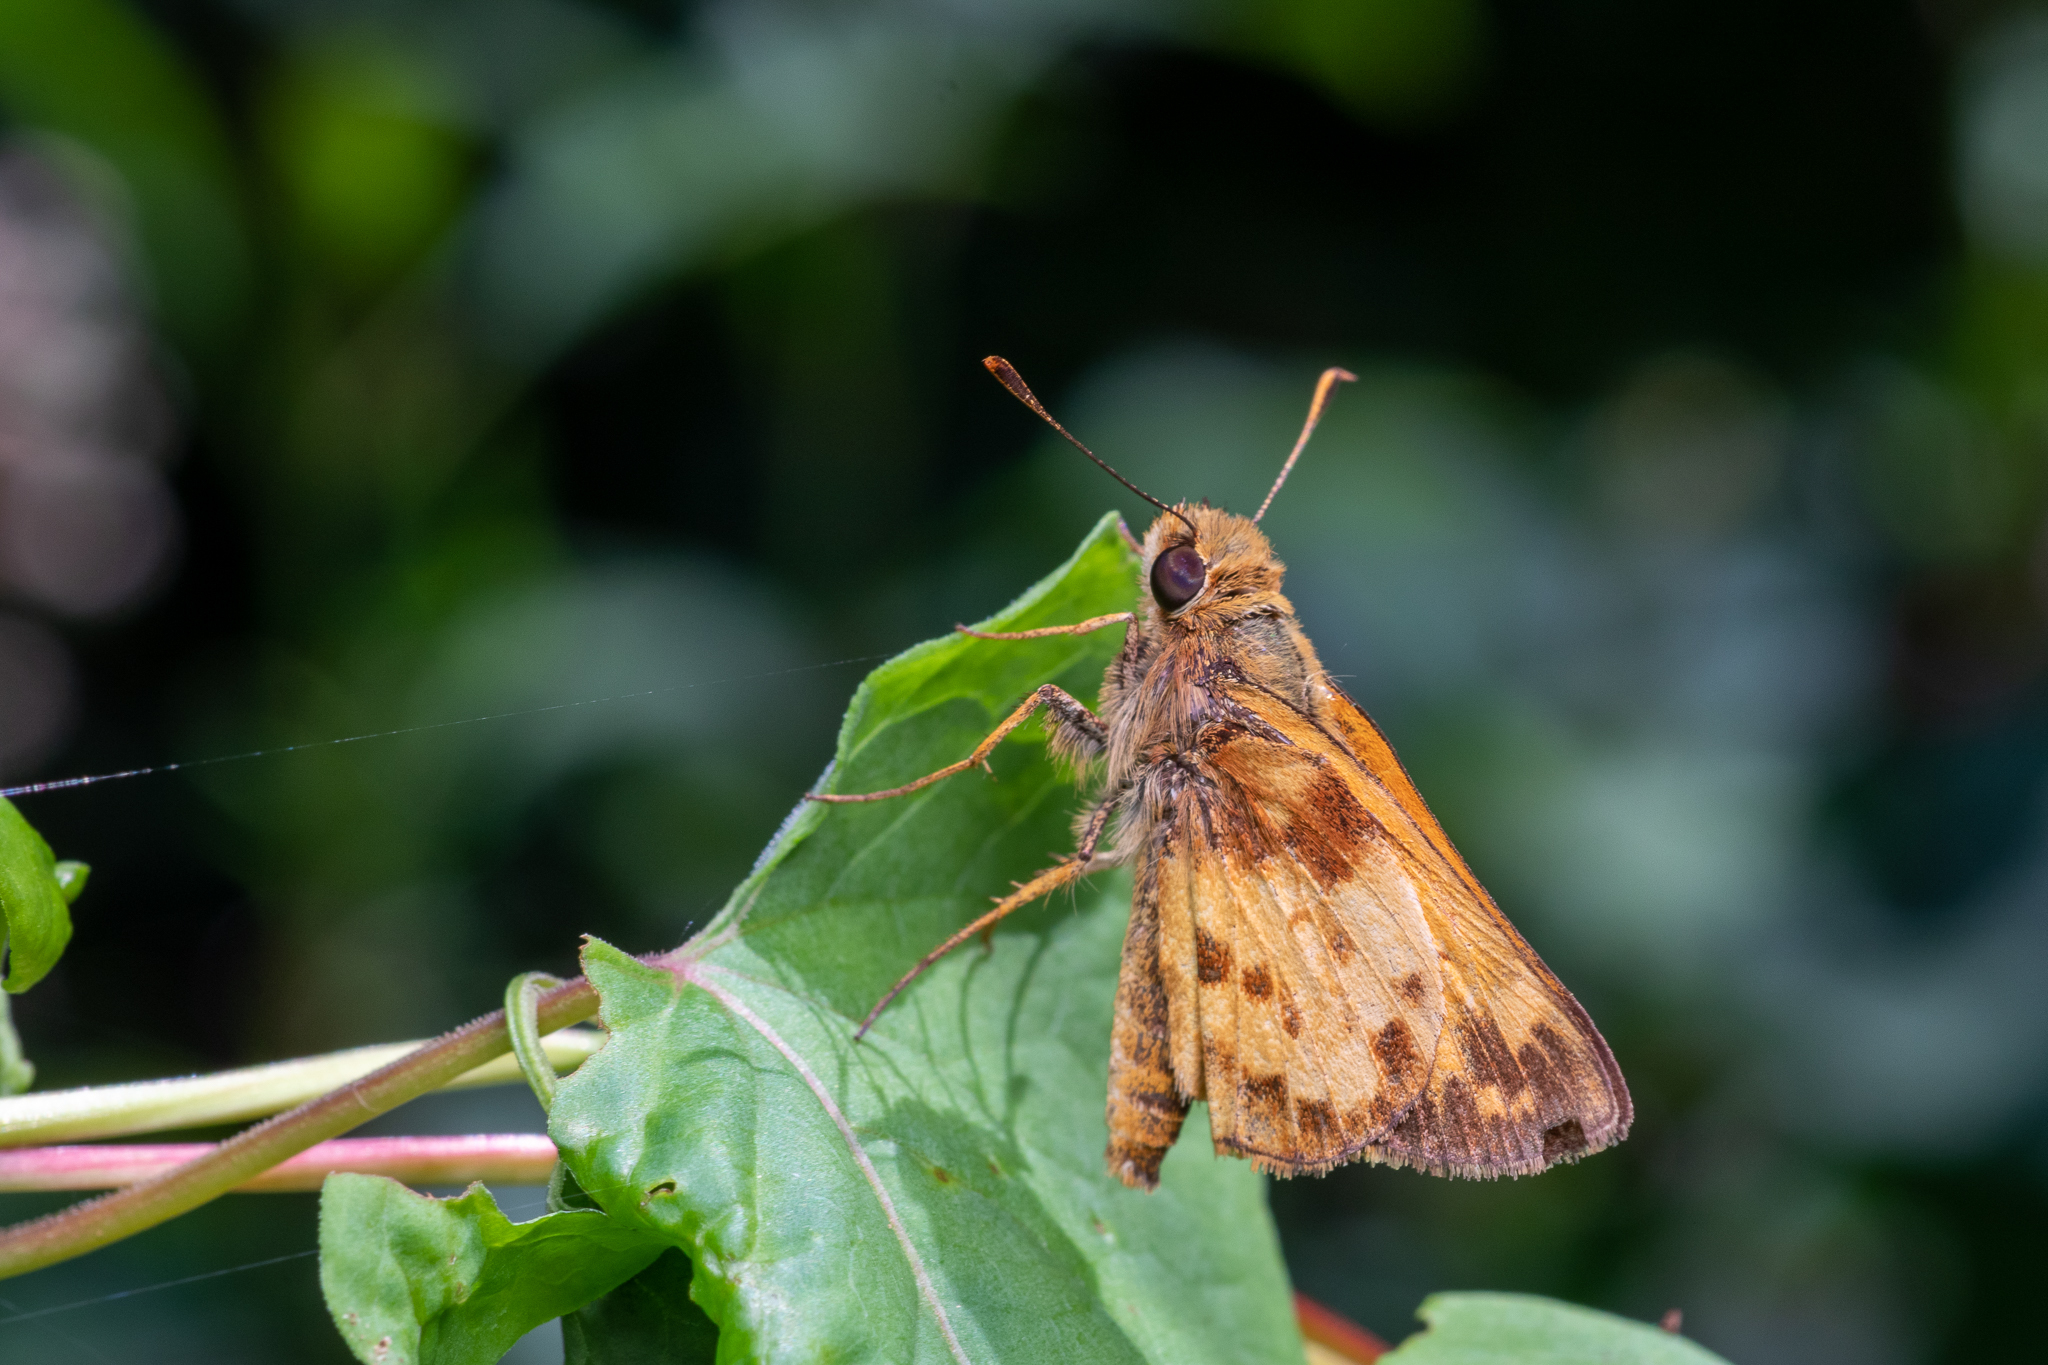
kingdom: Animalia
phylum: Arthropoda
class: Insecta
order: Lepidoptera
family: Hesperiidae
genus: Lon
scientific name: Lon zabulon
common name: Zabulon skipper
